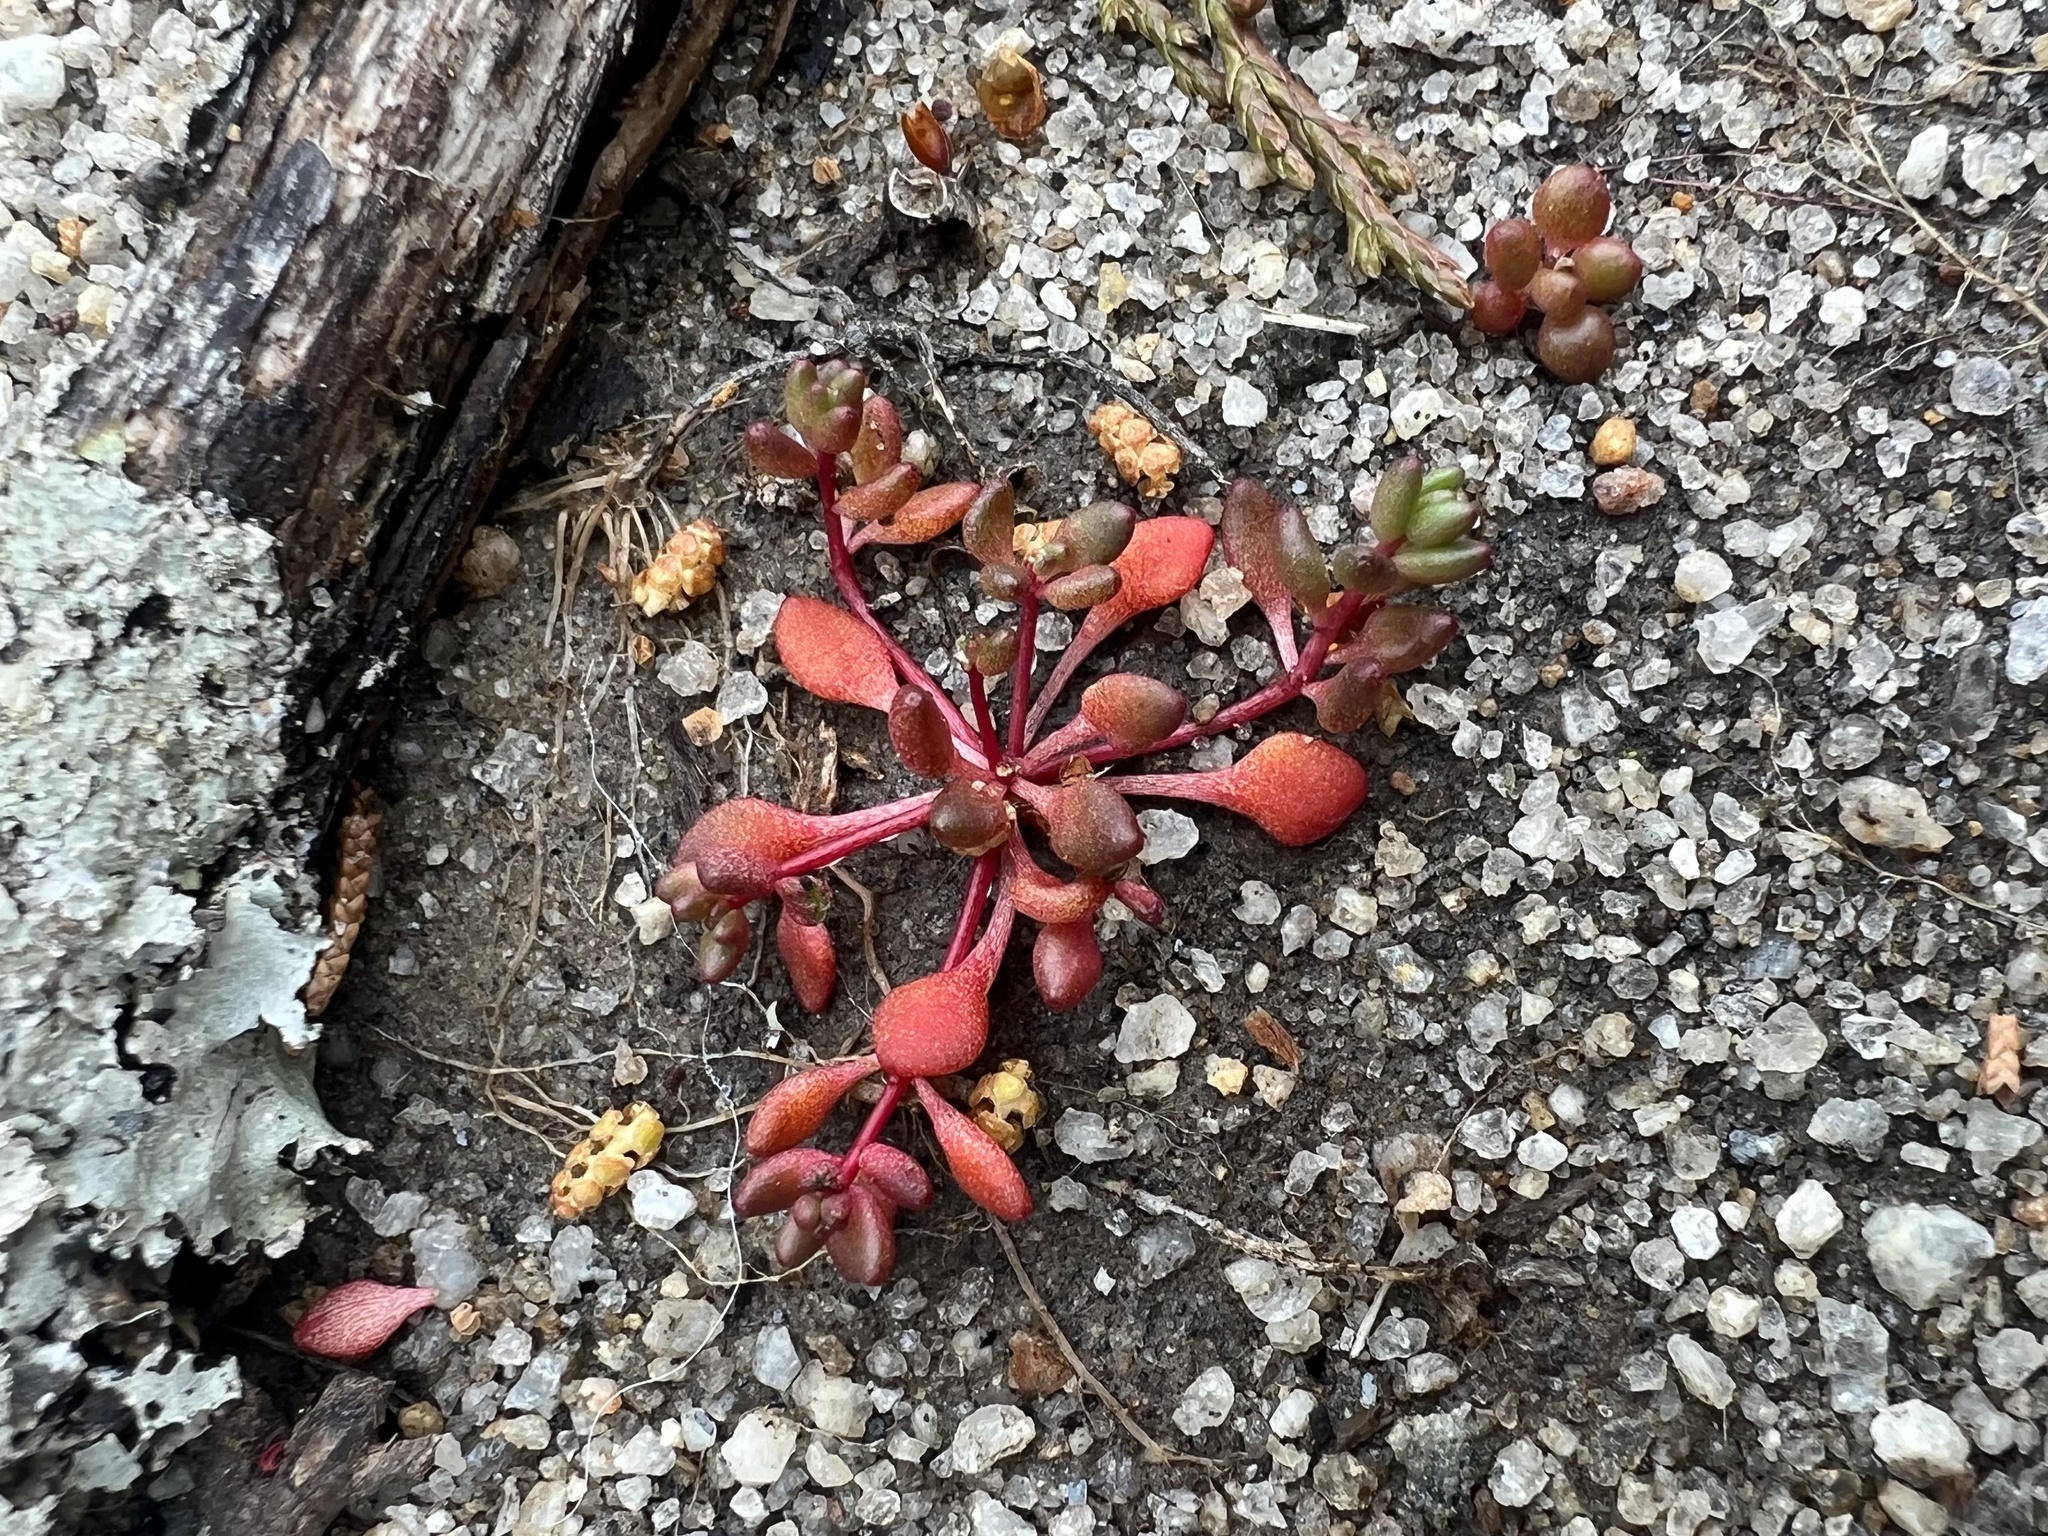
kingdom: Plantae
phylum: Tracheophyta
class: Magnoliopsida
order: Saxifragales
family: Crassulaceae
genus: Sedum
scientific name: Sedum smallii
